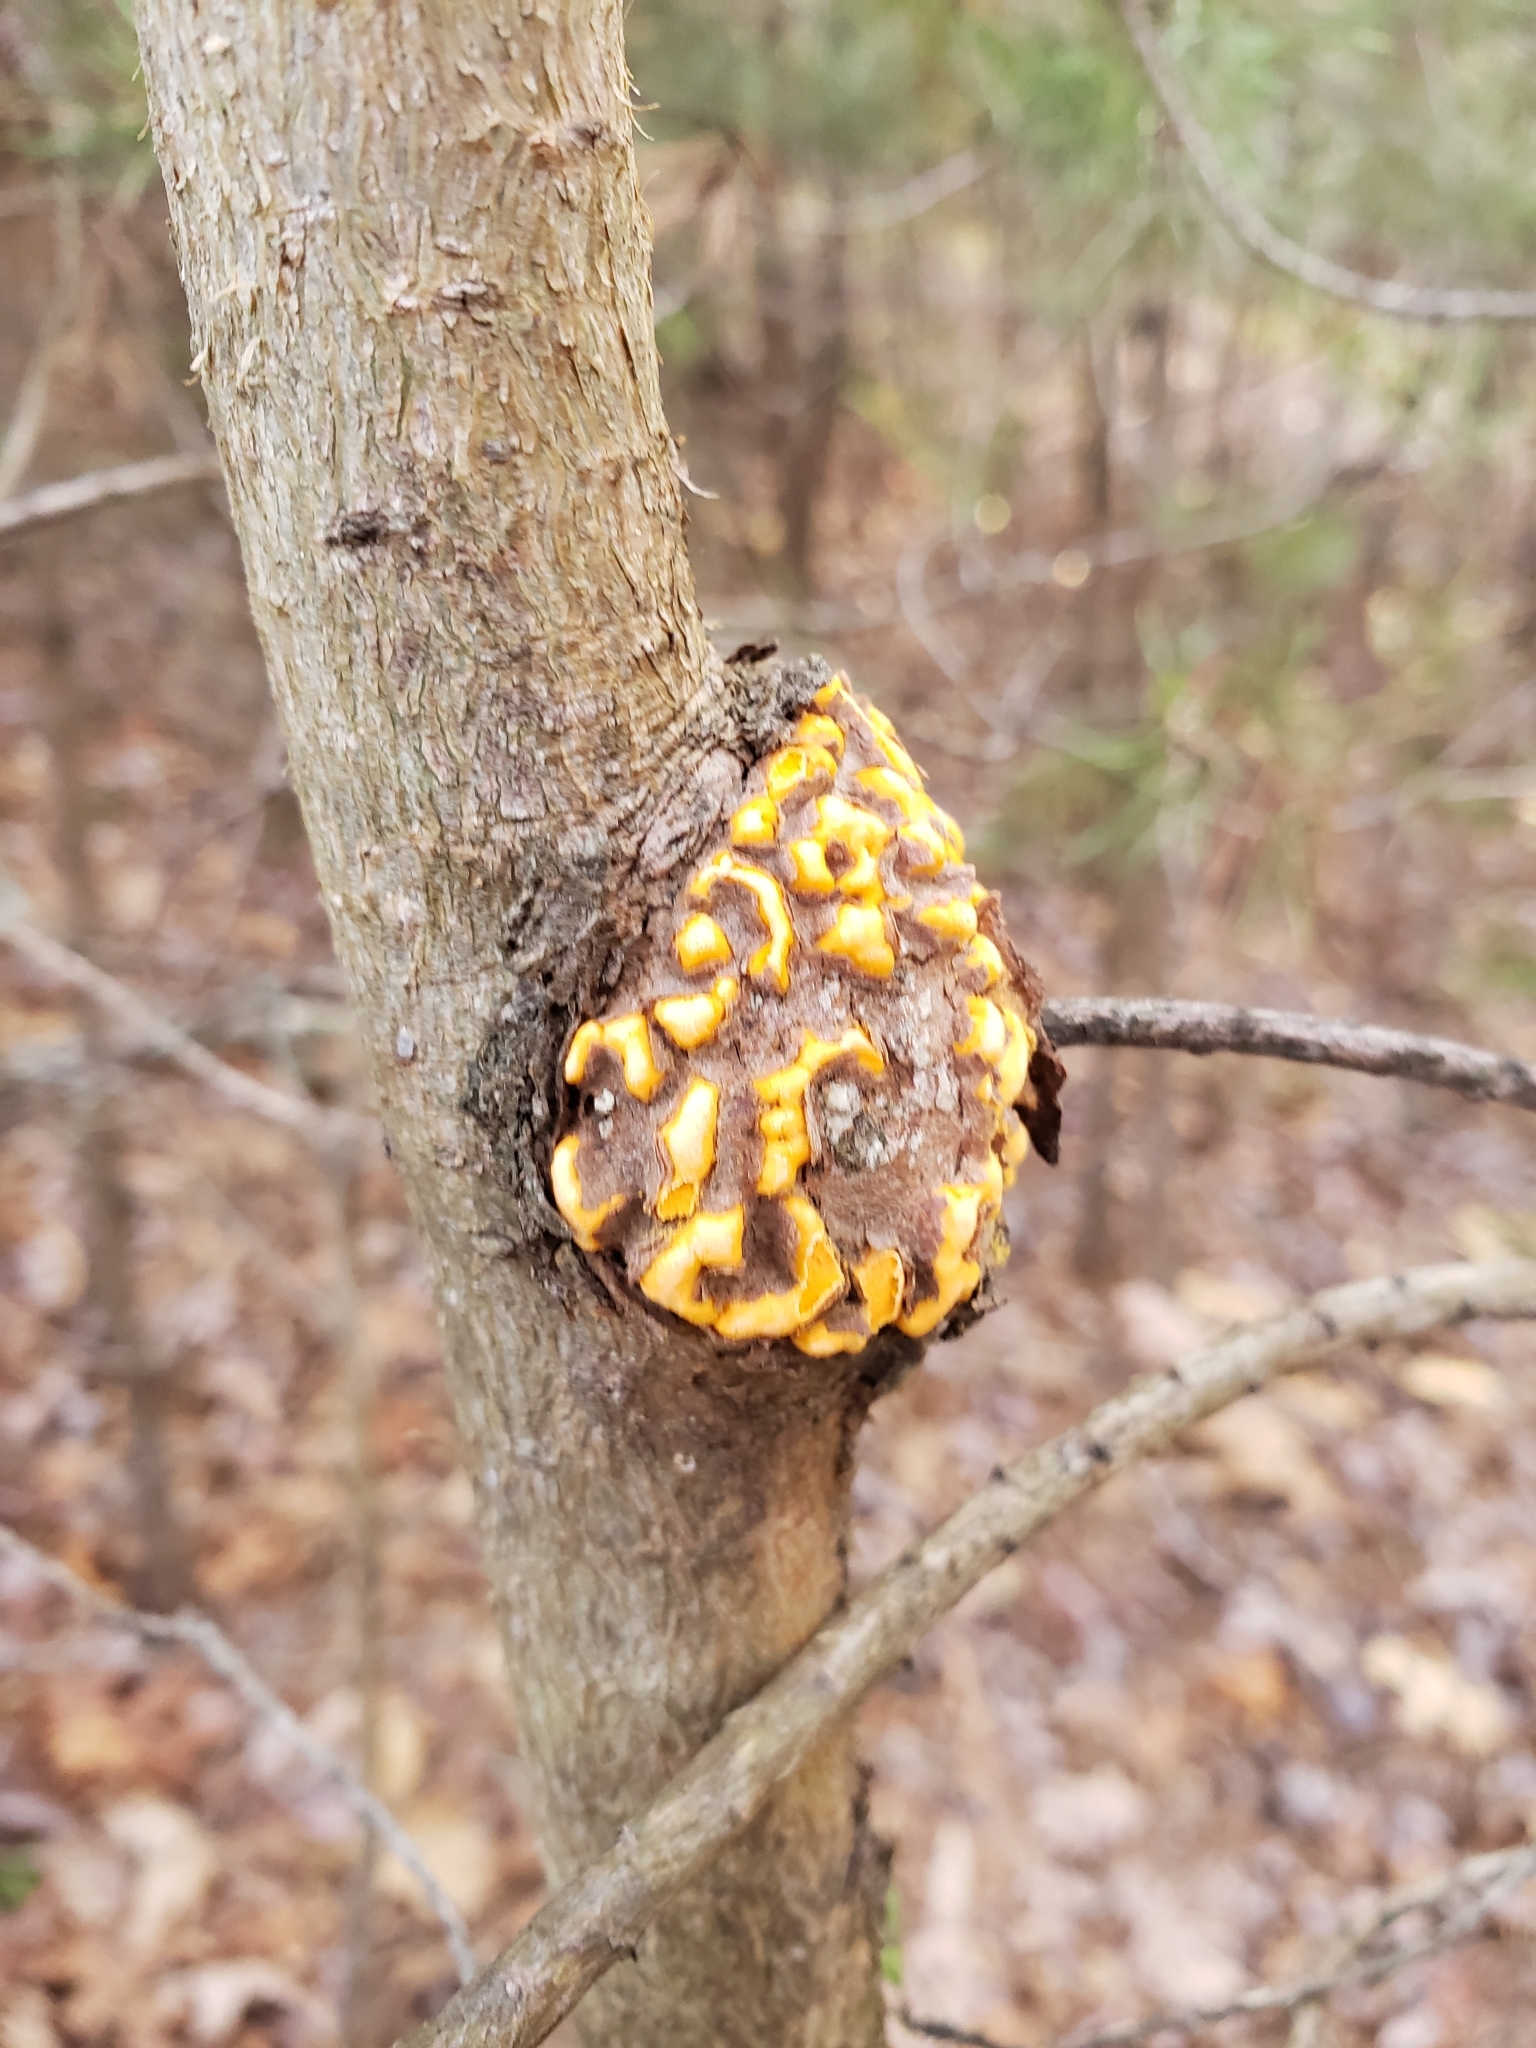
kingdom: Fungi
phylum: Basidiomycota
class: Pucciniomycetes
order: Pucciniales
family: Cronartiaceae
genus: Cronartium
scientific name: Cronartium quercuum
